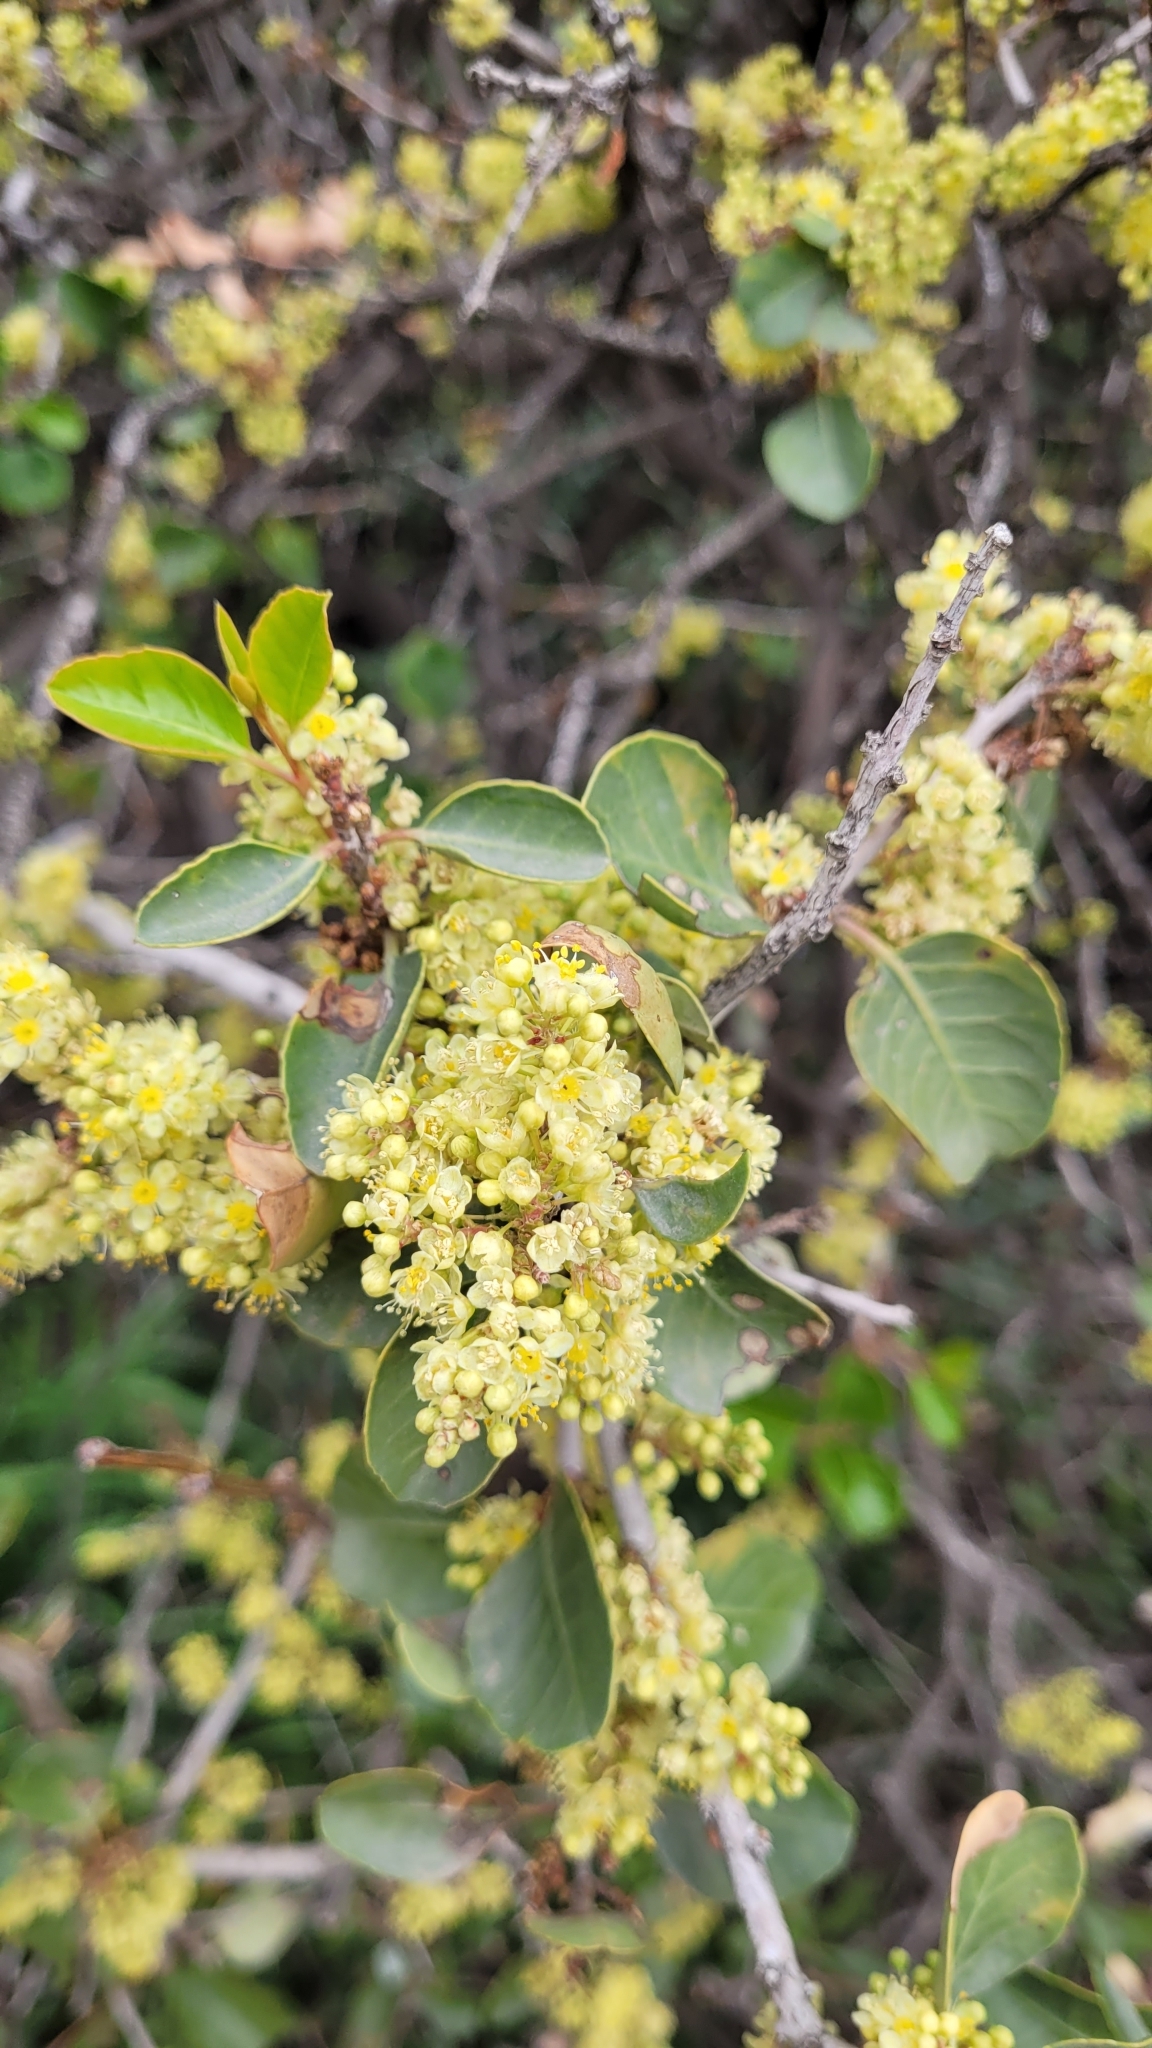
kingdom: Plantae
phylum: Tracheophyta
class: Magnoliopsida
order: Sapindales
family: Anacardiaceae
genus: Lithraea
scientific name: Lithraea caustica
